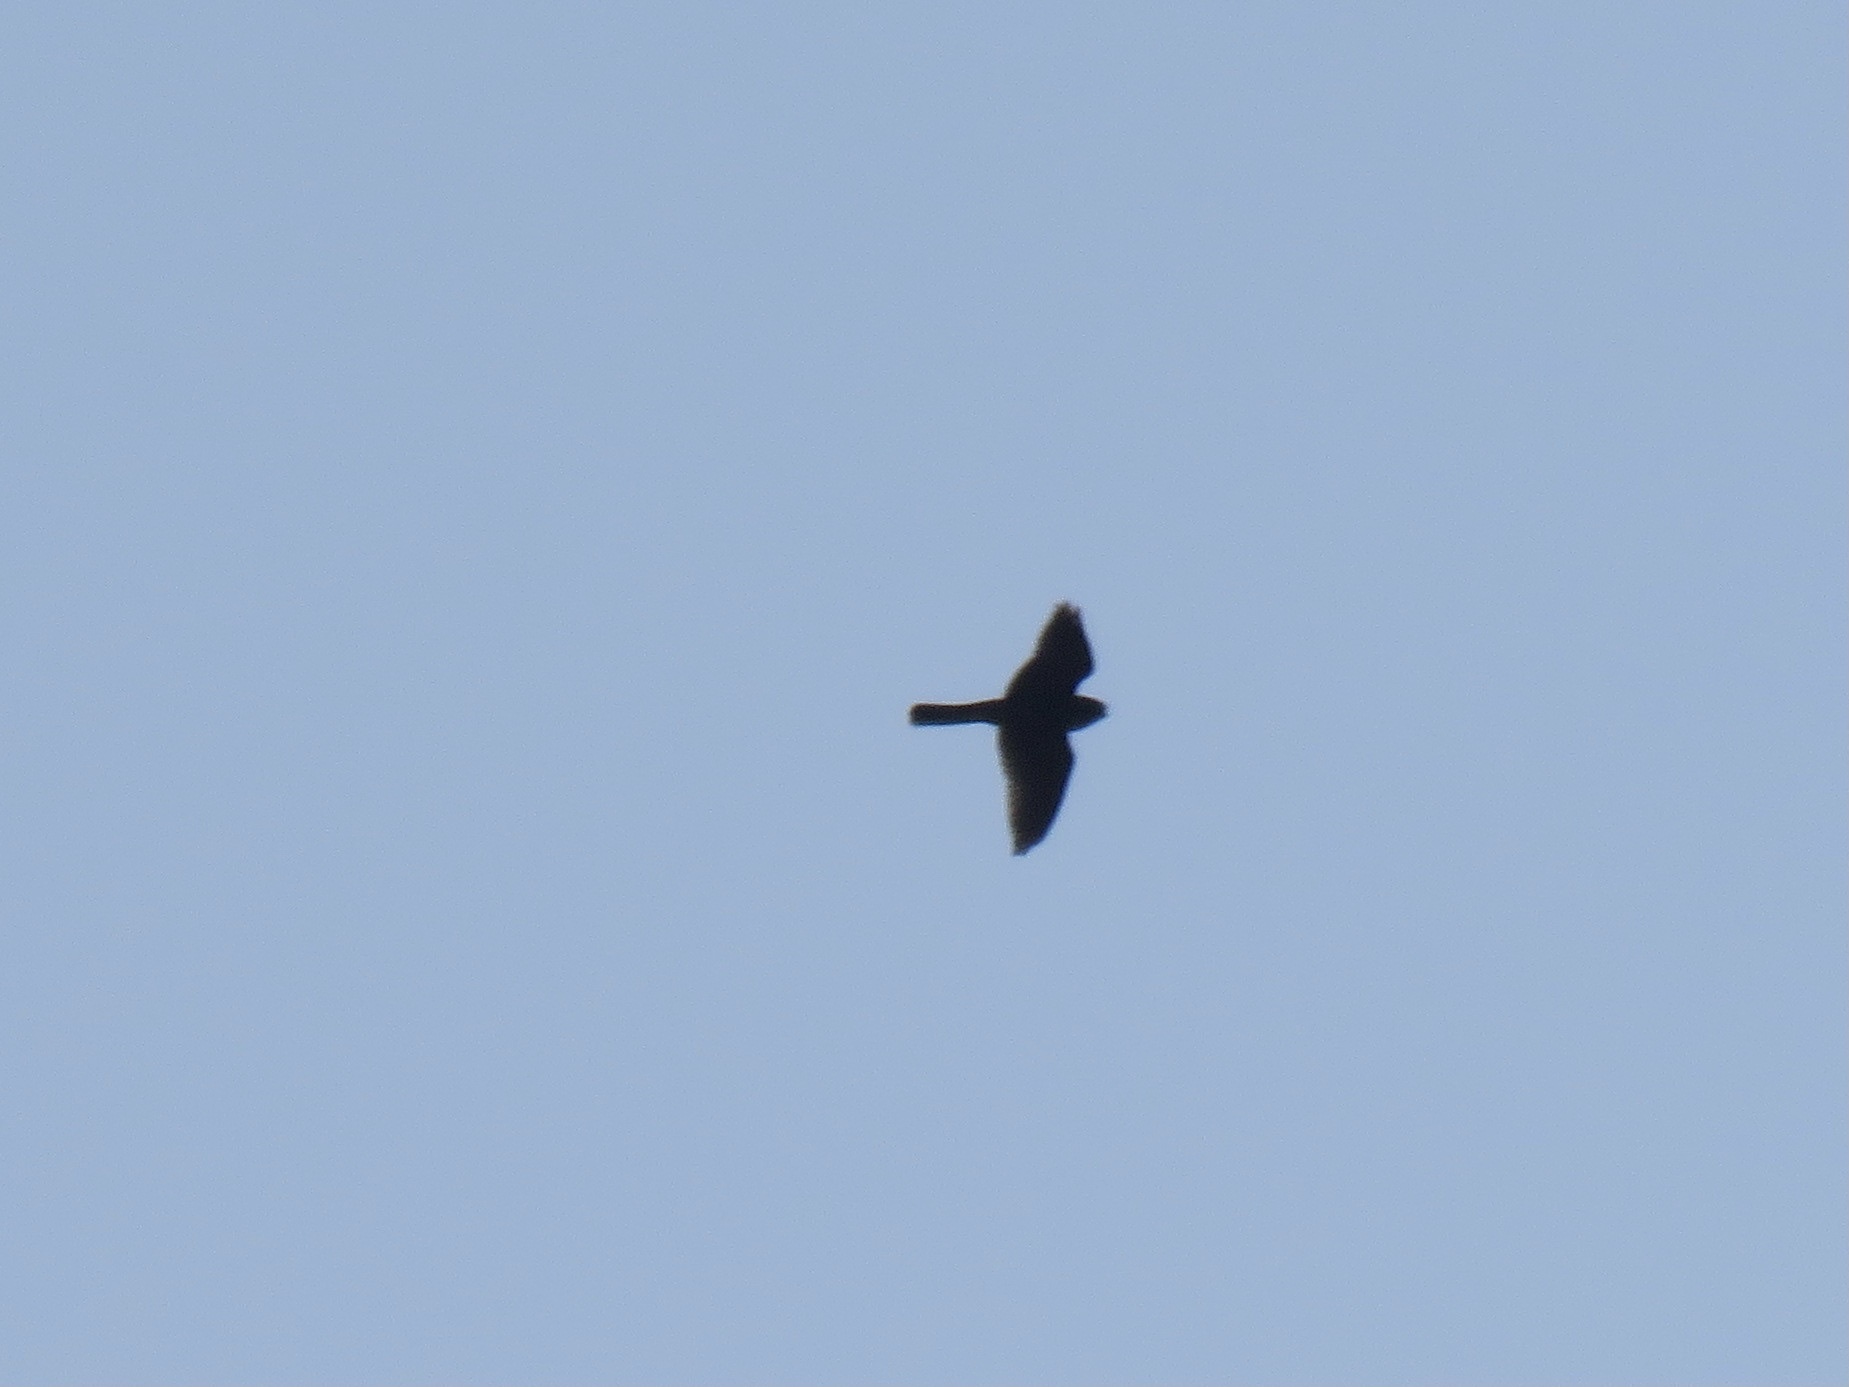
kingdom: Animalia
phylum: Chordata
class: Aves
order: Falconiformes
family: Falconidae
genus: Falco
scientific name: Falco columbarius
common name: Merlin
